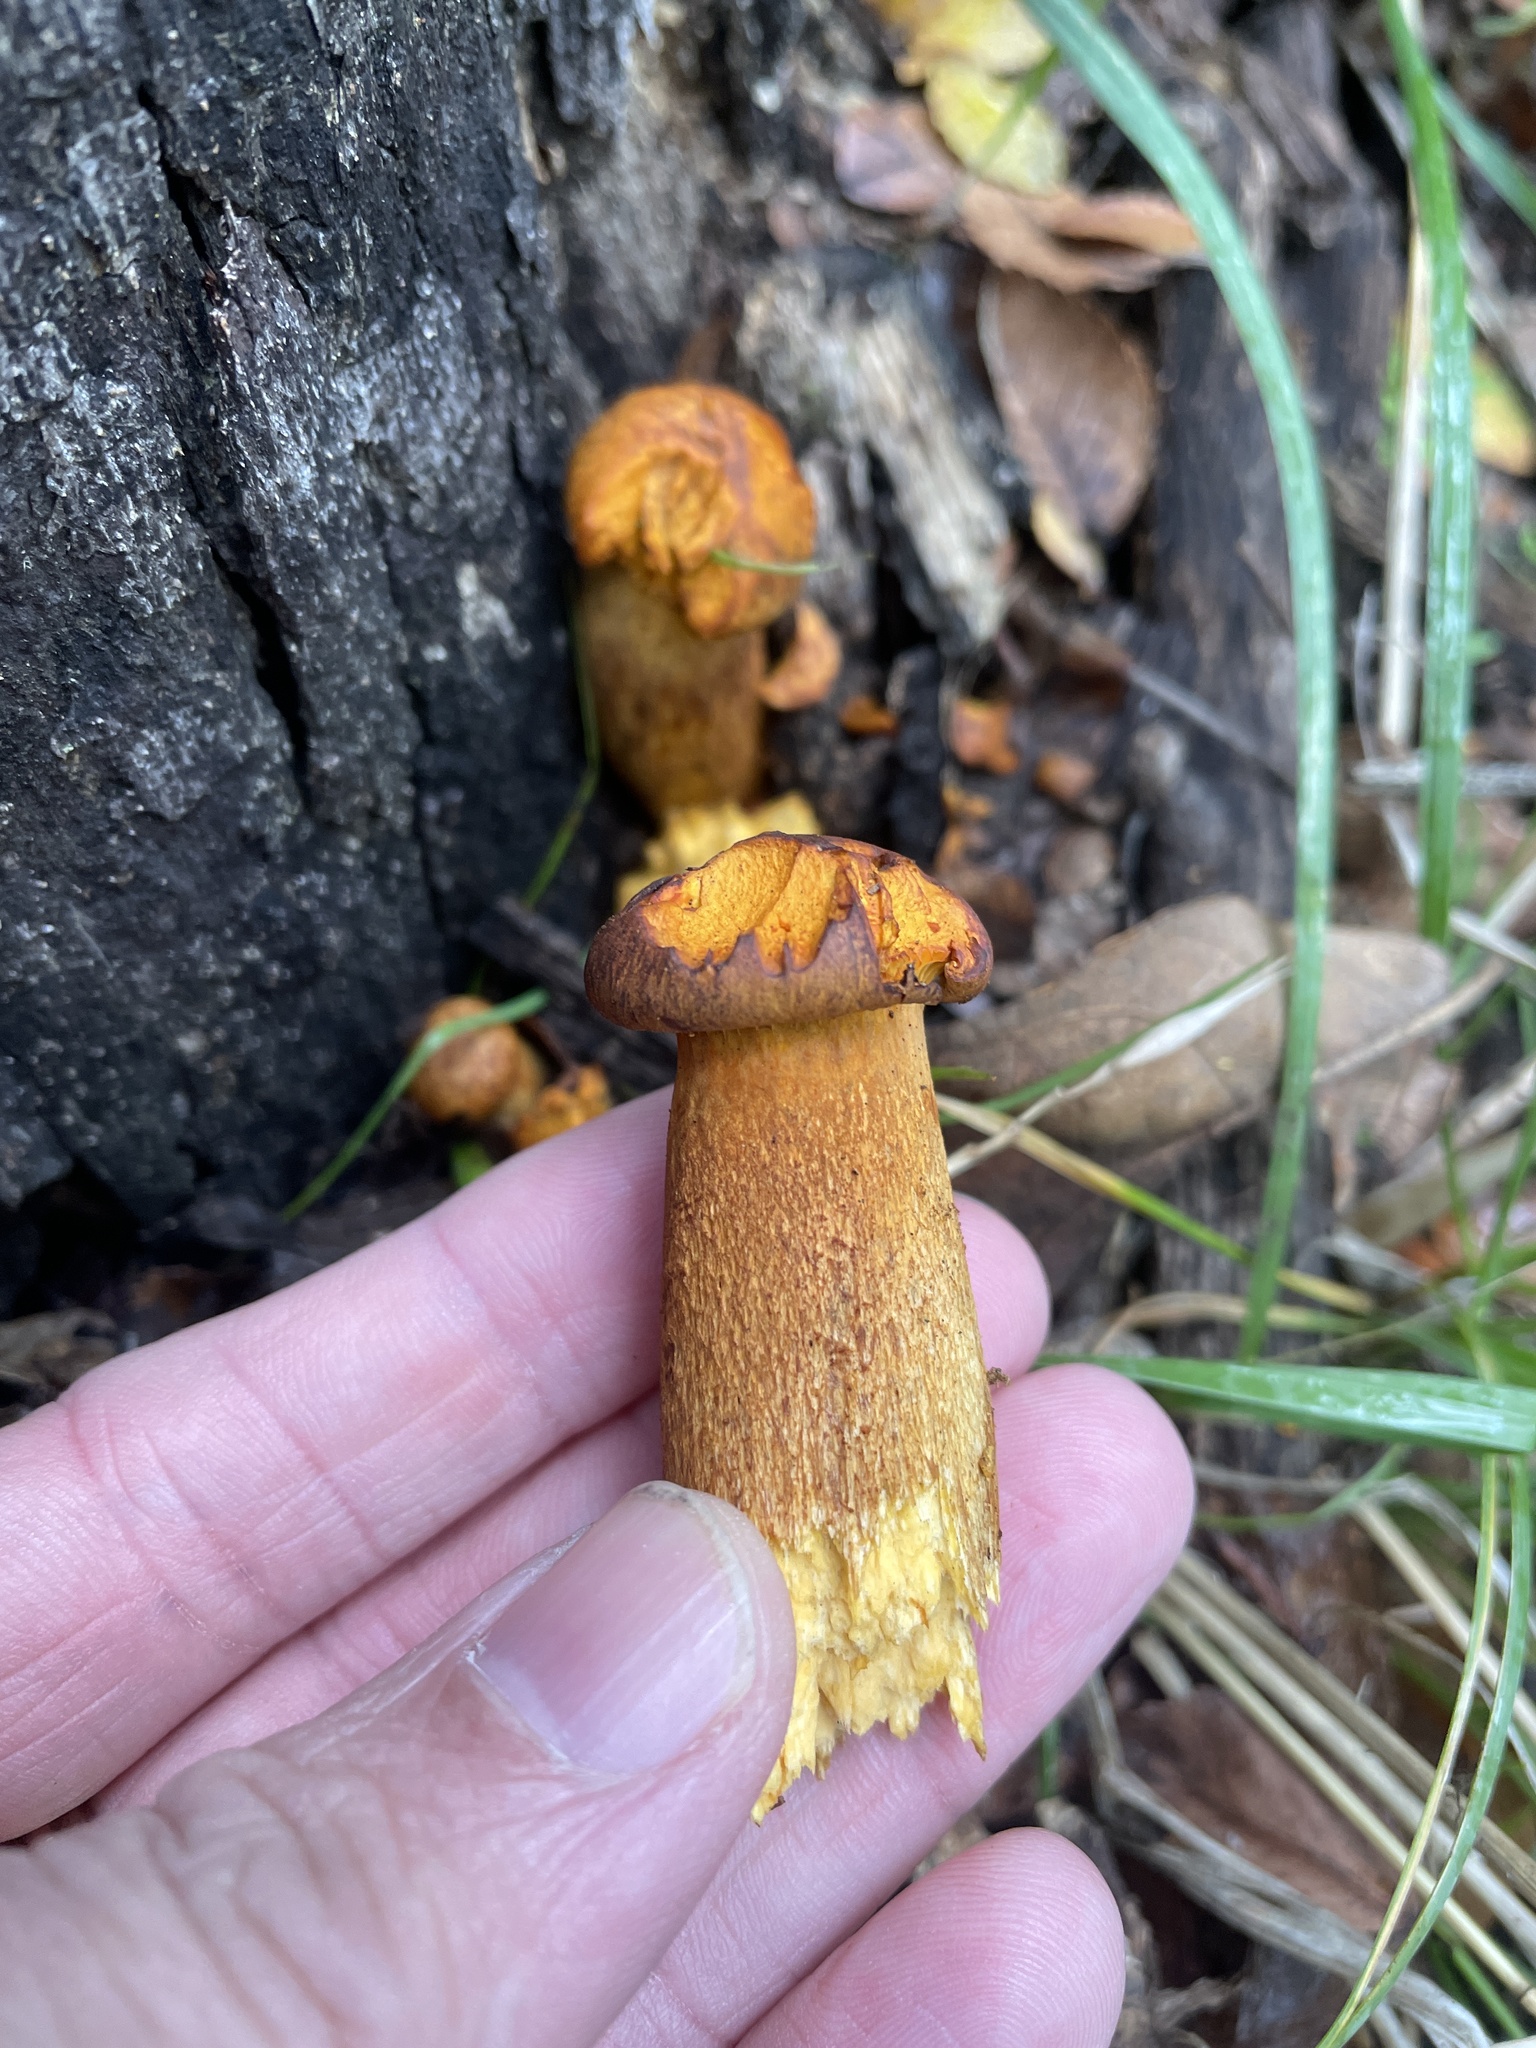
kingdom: Fungi
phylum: Basidiomycota
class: Agaricomycetes
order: Agaricales
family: Omphalotaceae
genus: Omphalotus
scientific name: Omphalotus subilludens
